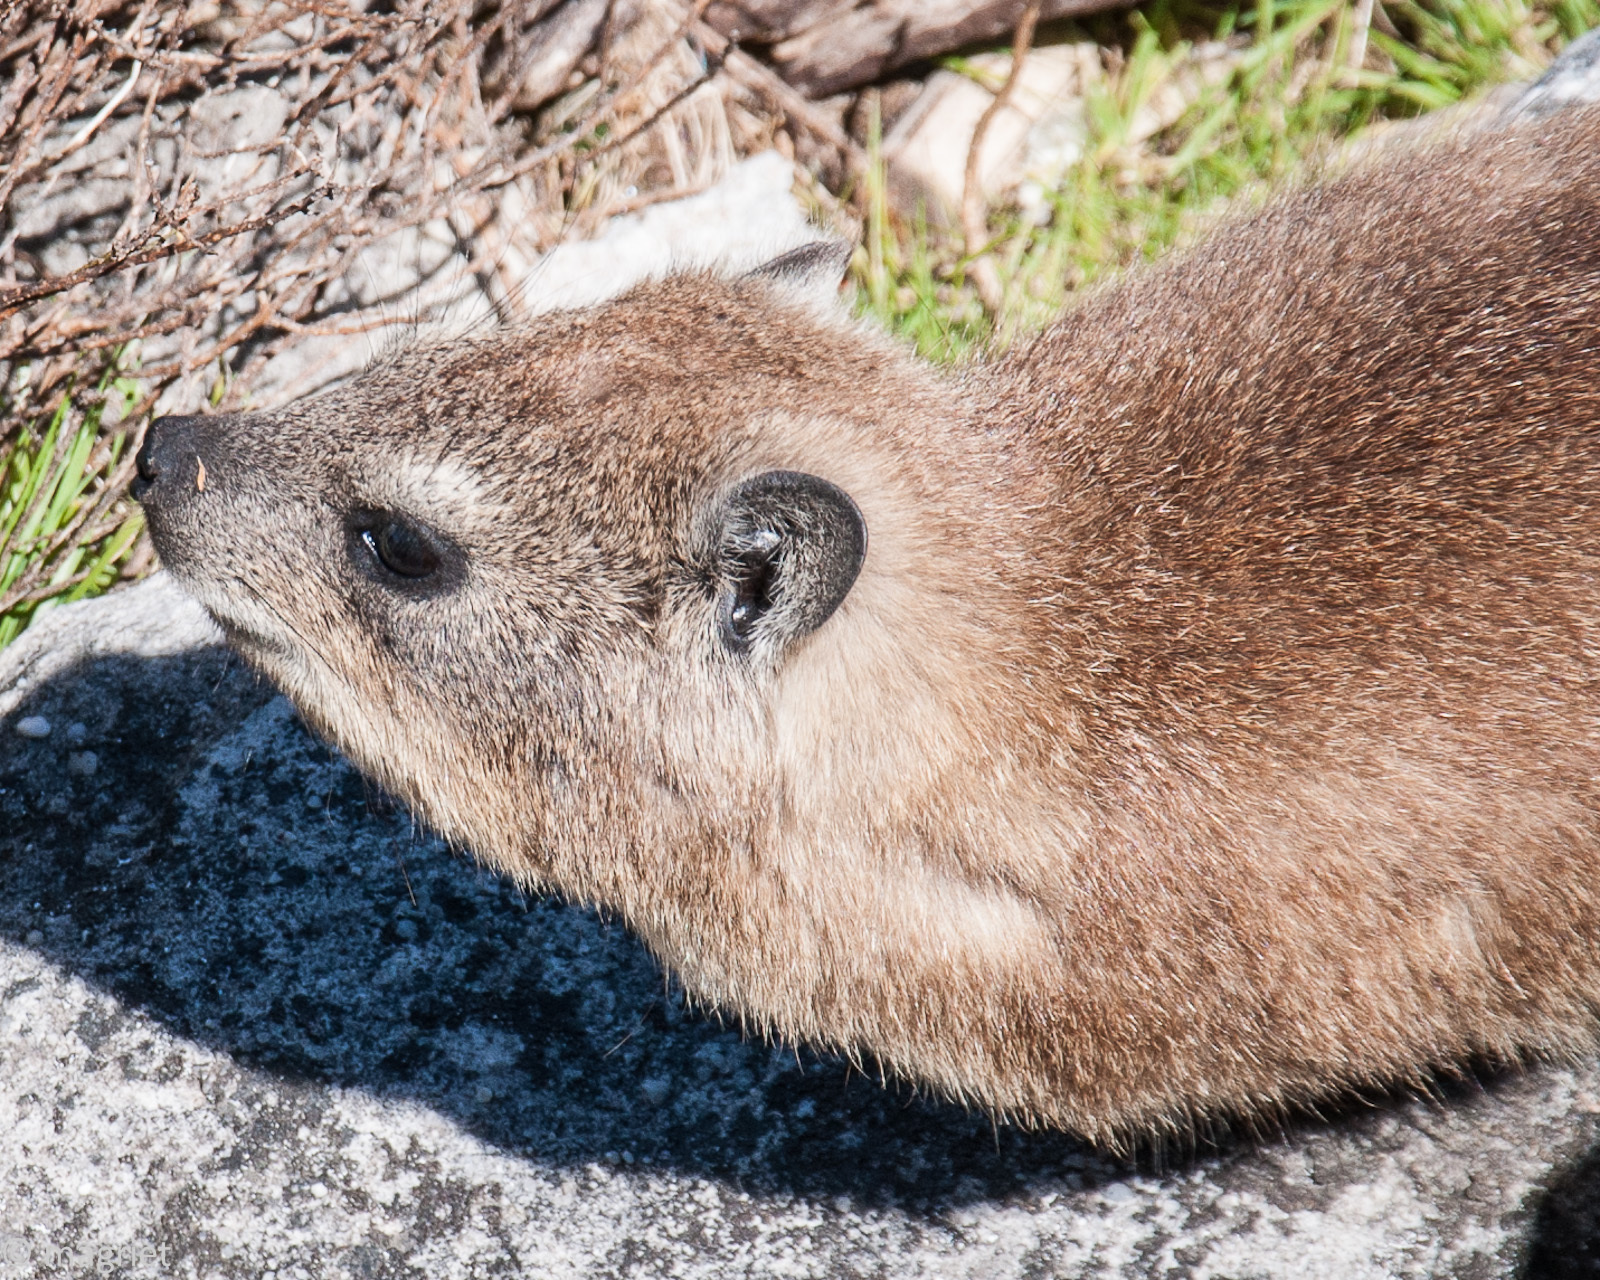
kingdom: Animalia
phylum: Chordata
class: Mammalia
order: Hyracoidea
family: Procaviidae
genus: Procavia
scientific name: Procavia capensis
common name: Rock hyrax
